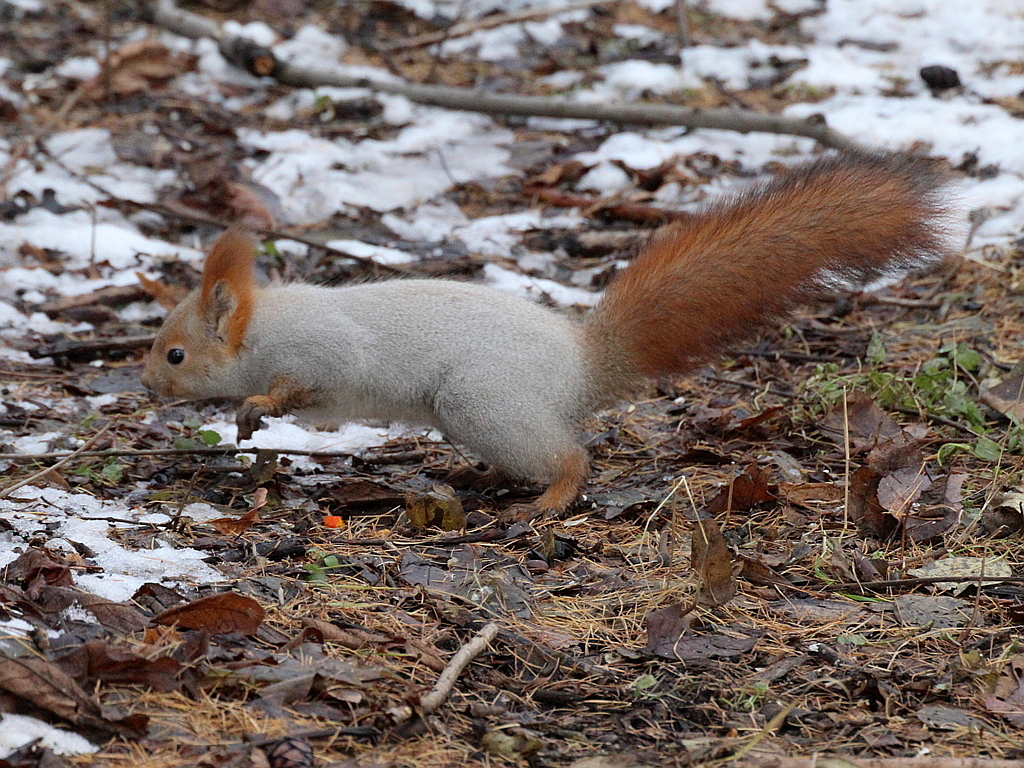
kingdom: Animalia
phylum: Chordata
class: Mammalia
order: Rodentia
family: Sciuridae
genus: Sciurus
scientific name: Sciurus vulgaris
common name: Eurasian red squirrel
